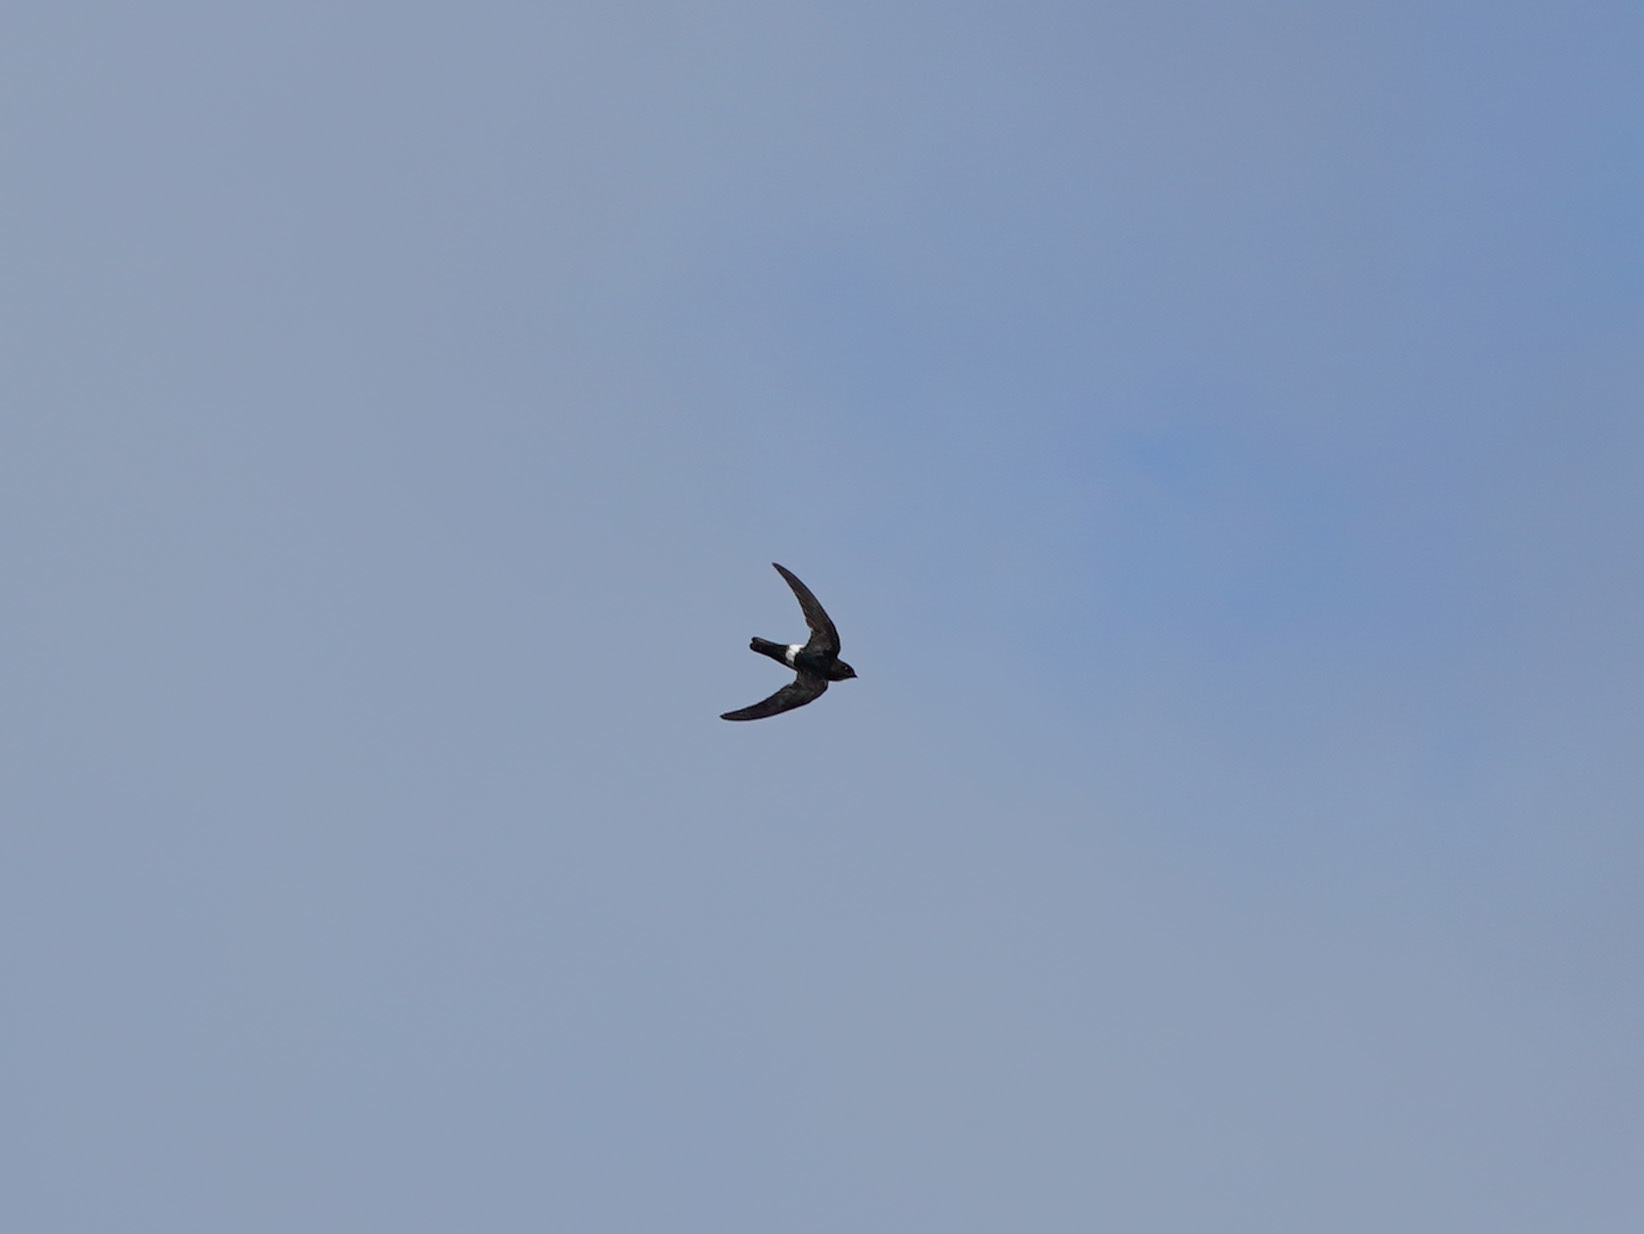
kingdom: Animalia
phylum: Chordata
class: Aves
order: Apodiformes
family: Apodidae
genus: Apus
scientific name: Apus nipalensis
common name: House swift
